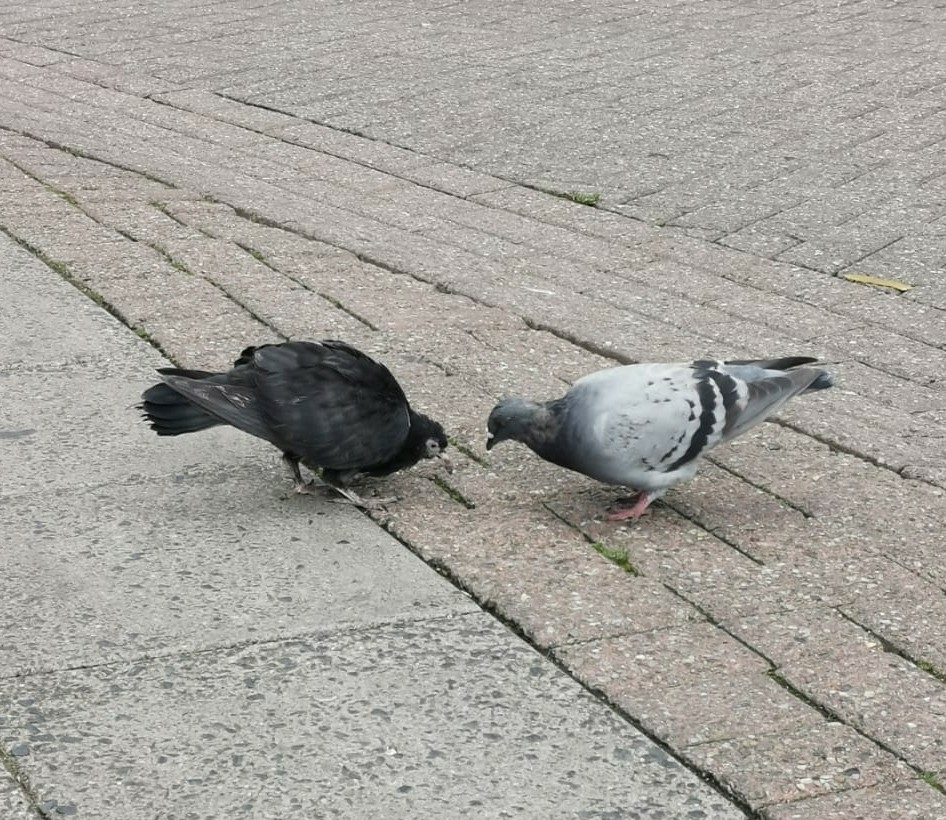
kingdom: Animalia
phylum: Chordata
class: Aves
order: Columbiformes
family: Columbidae
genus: Columba
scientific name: Columba livia
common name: Rock pigeon
